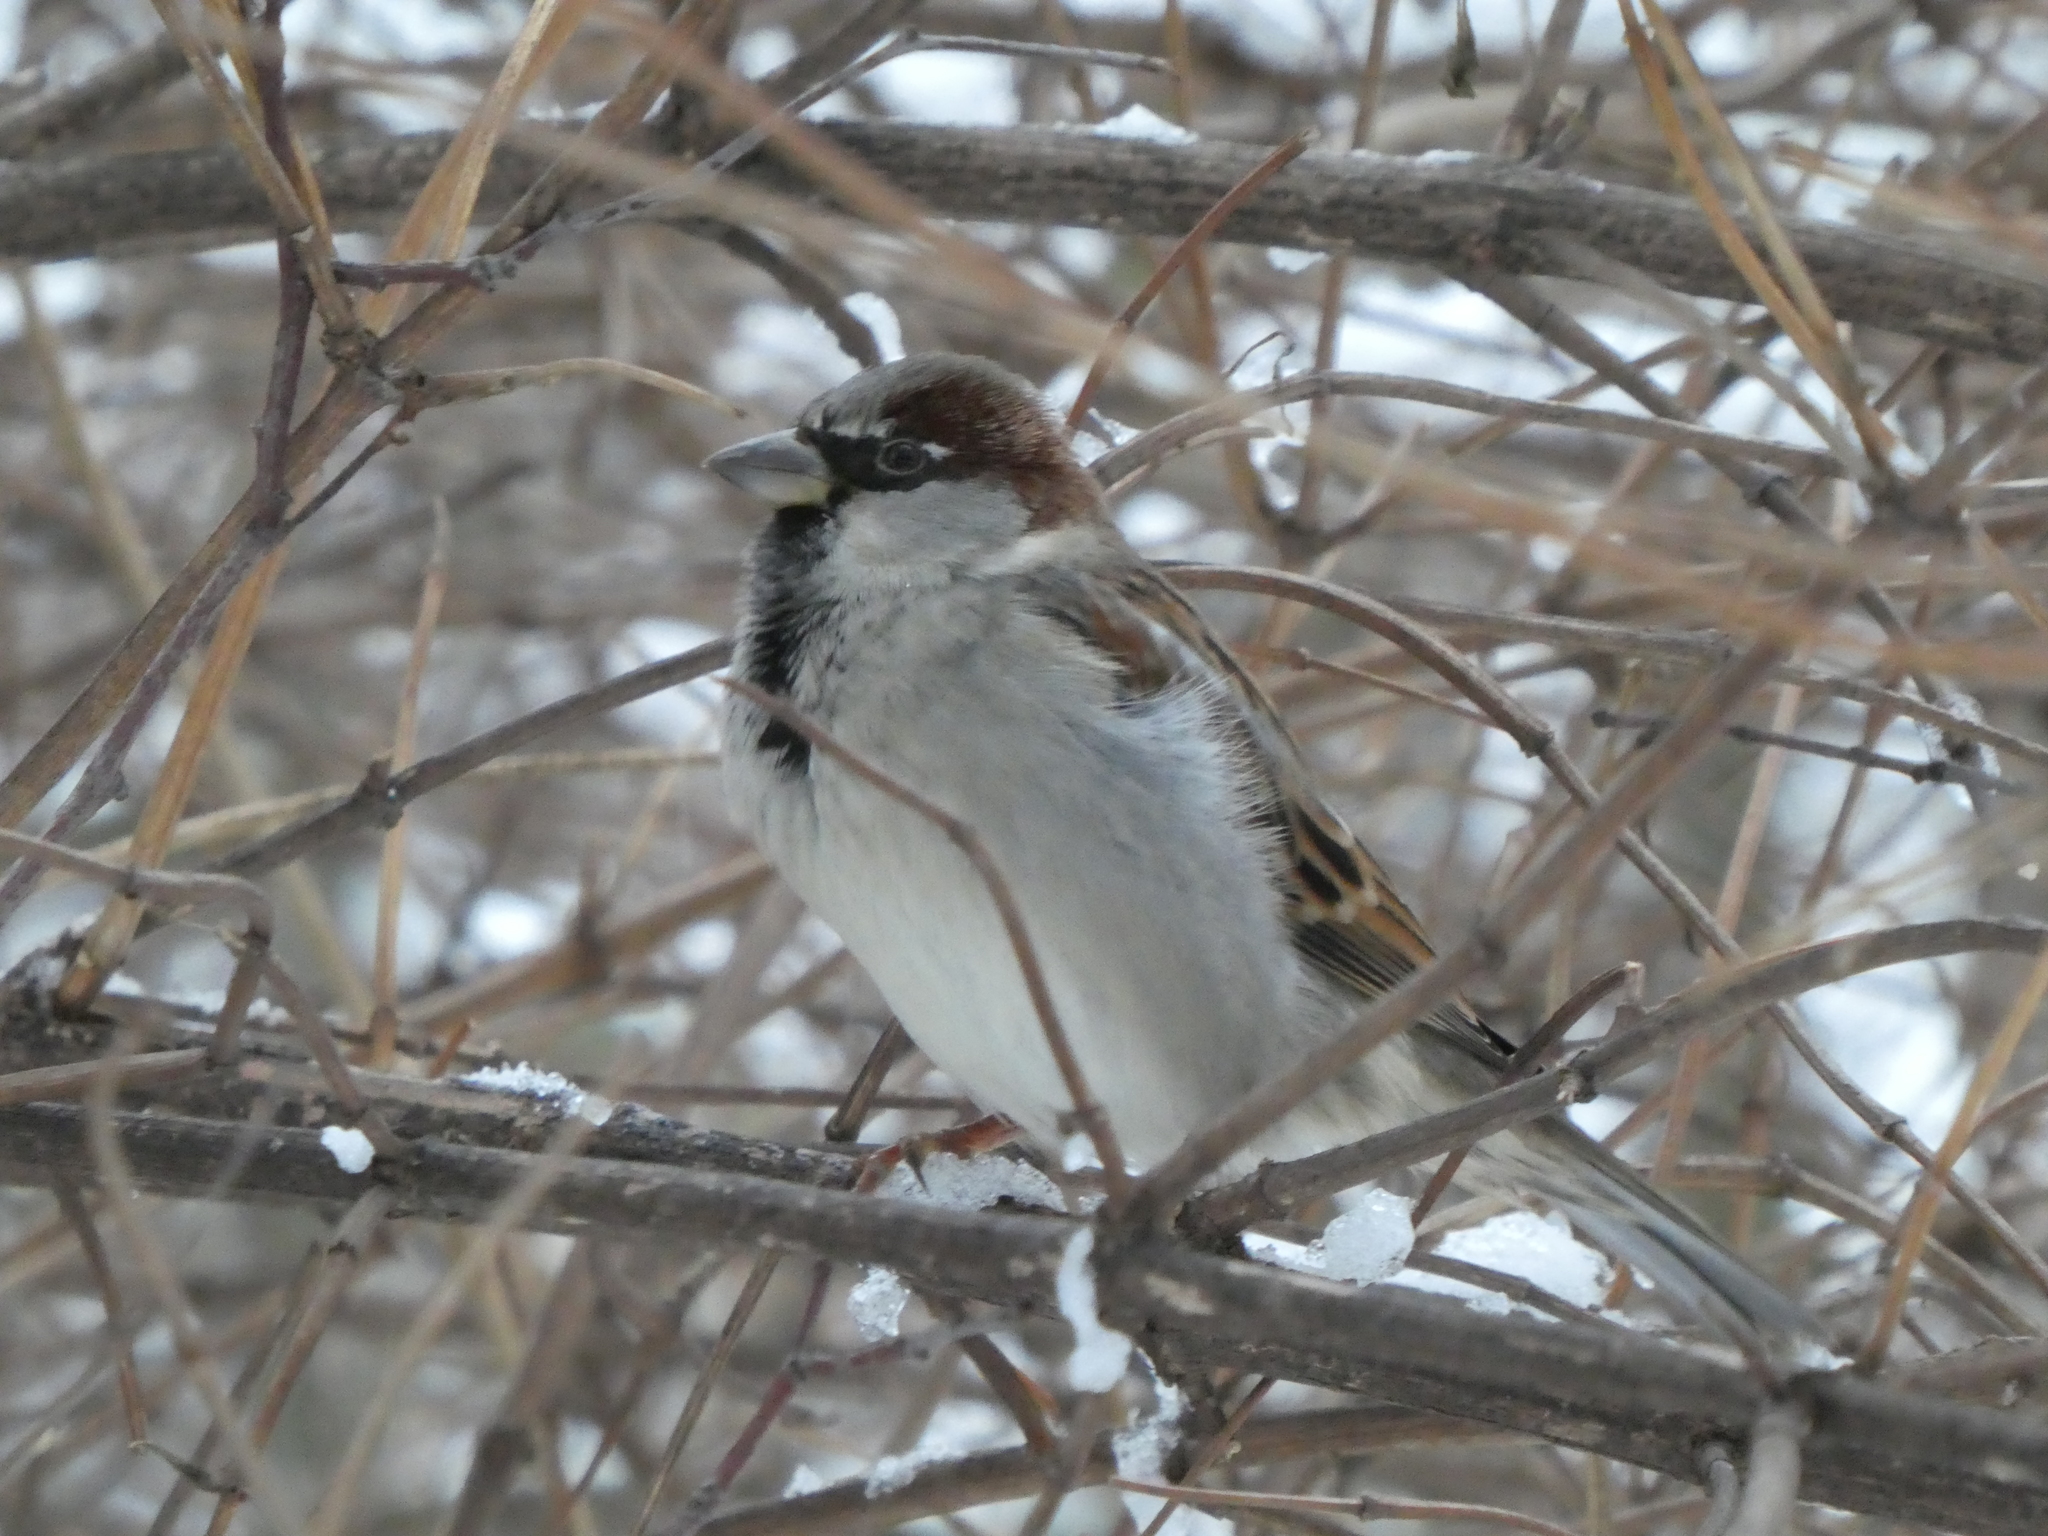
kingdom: Animalia
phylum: Chordata
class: Aves
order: Passeriformes
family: Passeridae
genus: Passer
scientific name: Passer domesticus
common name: House sparrow
